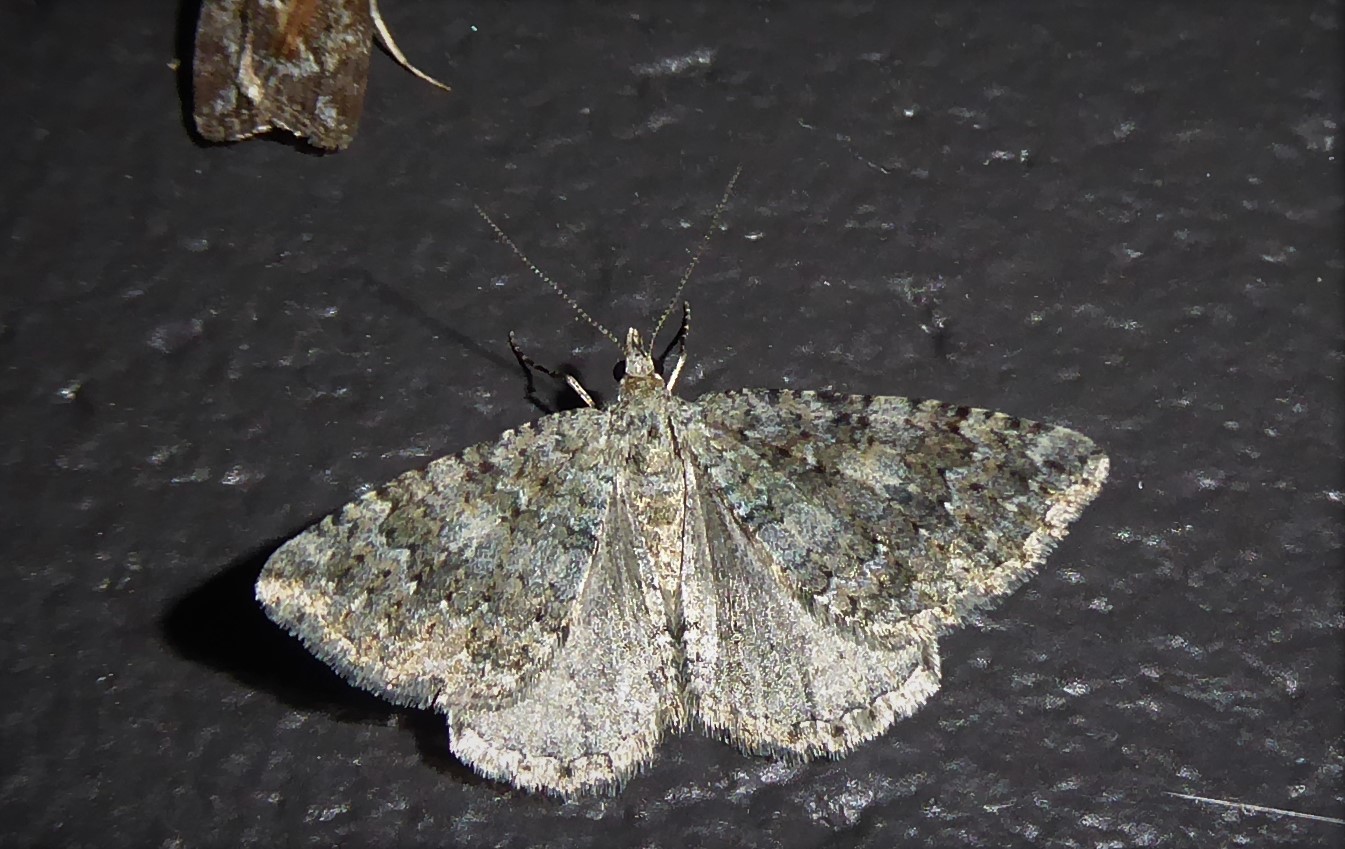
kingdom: Animalia
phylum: Arthropoda
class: Insecta
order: Lepidoptera
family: Geometridae
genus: Helastia
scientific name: Helastia corcularia
